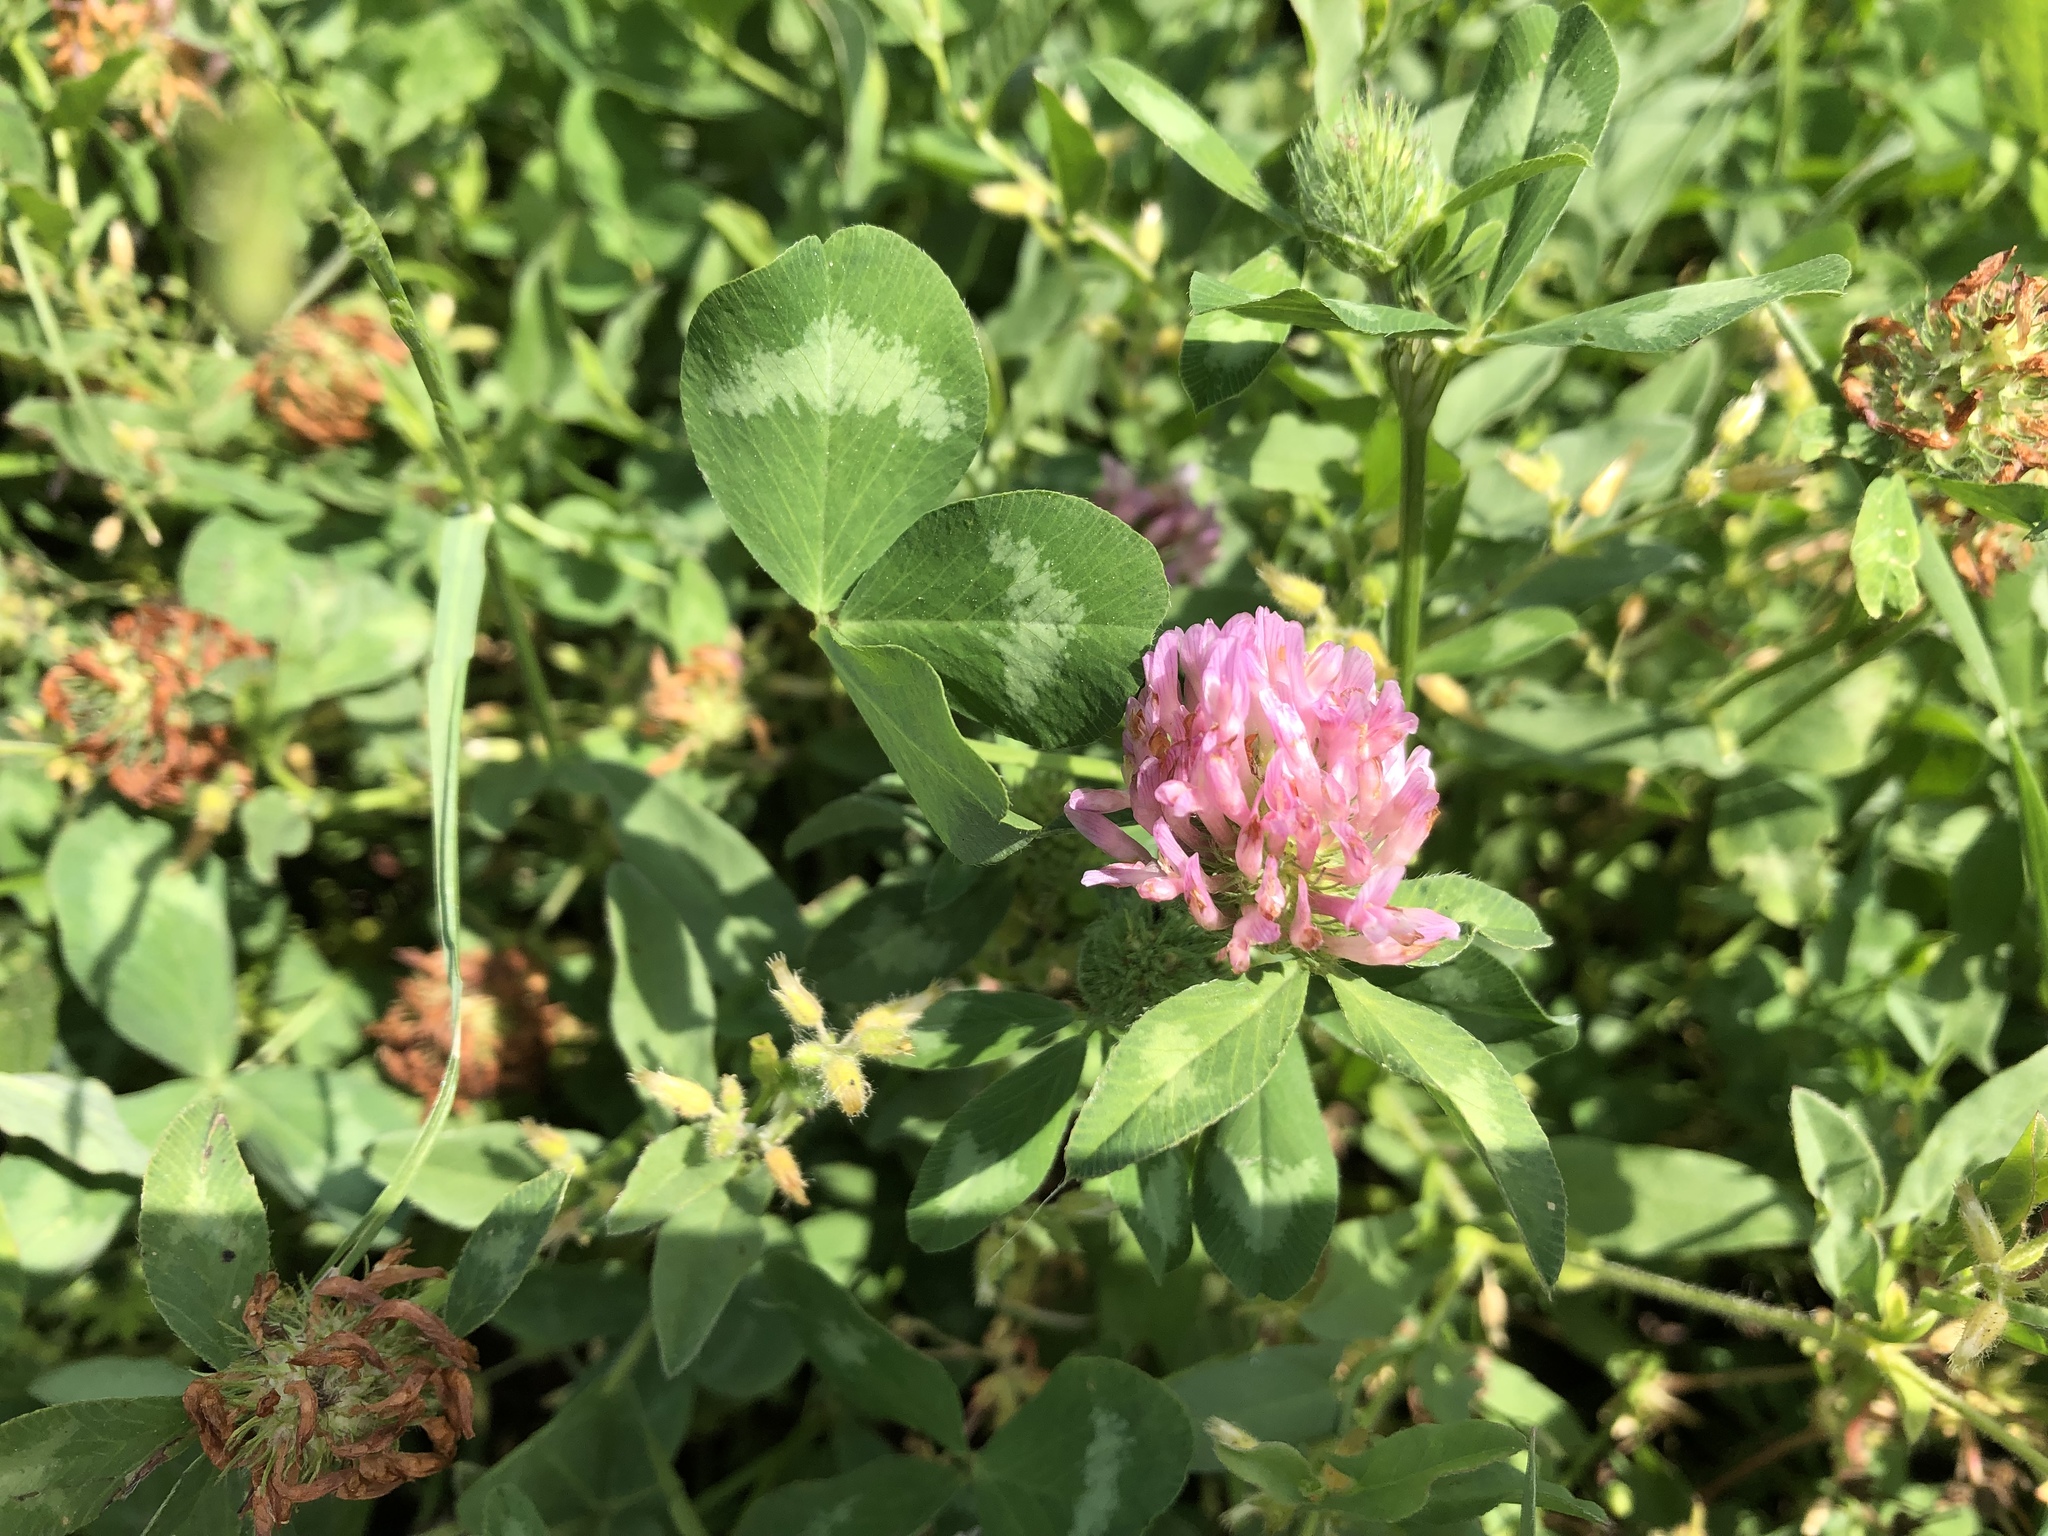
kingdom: Plantae
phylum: Tracheophyta
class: Magnoliopsida
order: Fabales
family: Fabaceae
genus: Trifolium
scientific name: Trifolium pratense
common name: Red clover
